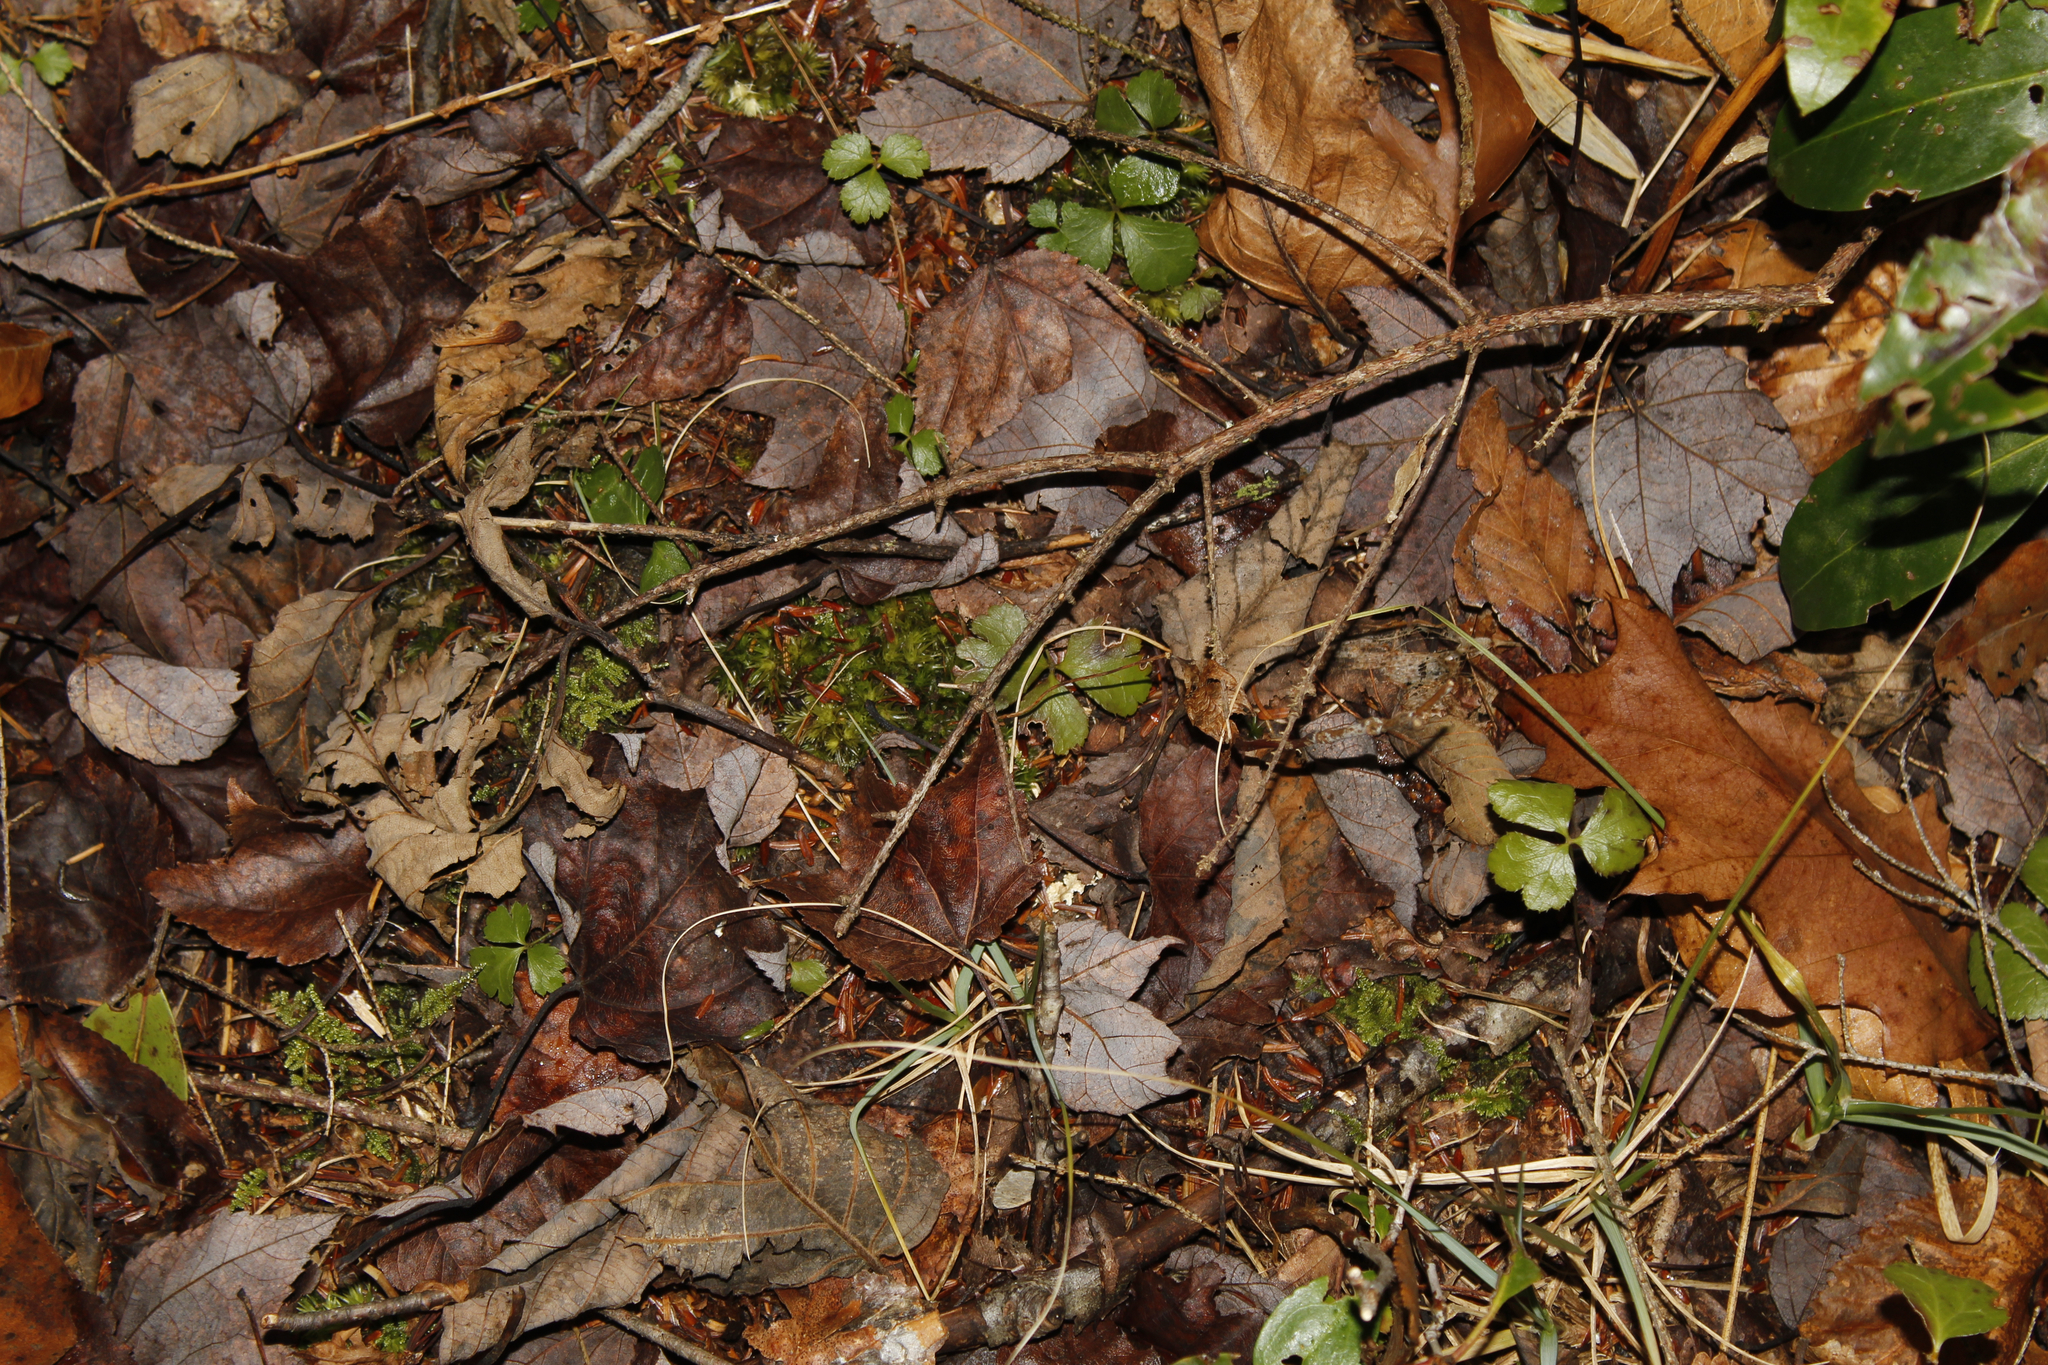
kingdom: Plantae
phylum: Tracheophyta
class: Magnoliopsida
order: Ranunculales
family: Ranunculaceae
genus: Coptis
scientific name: Coptis trifolia
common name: Canker-root
